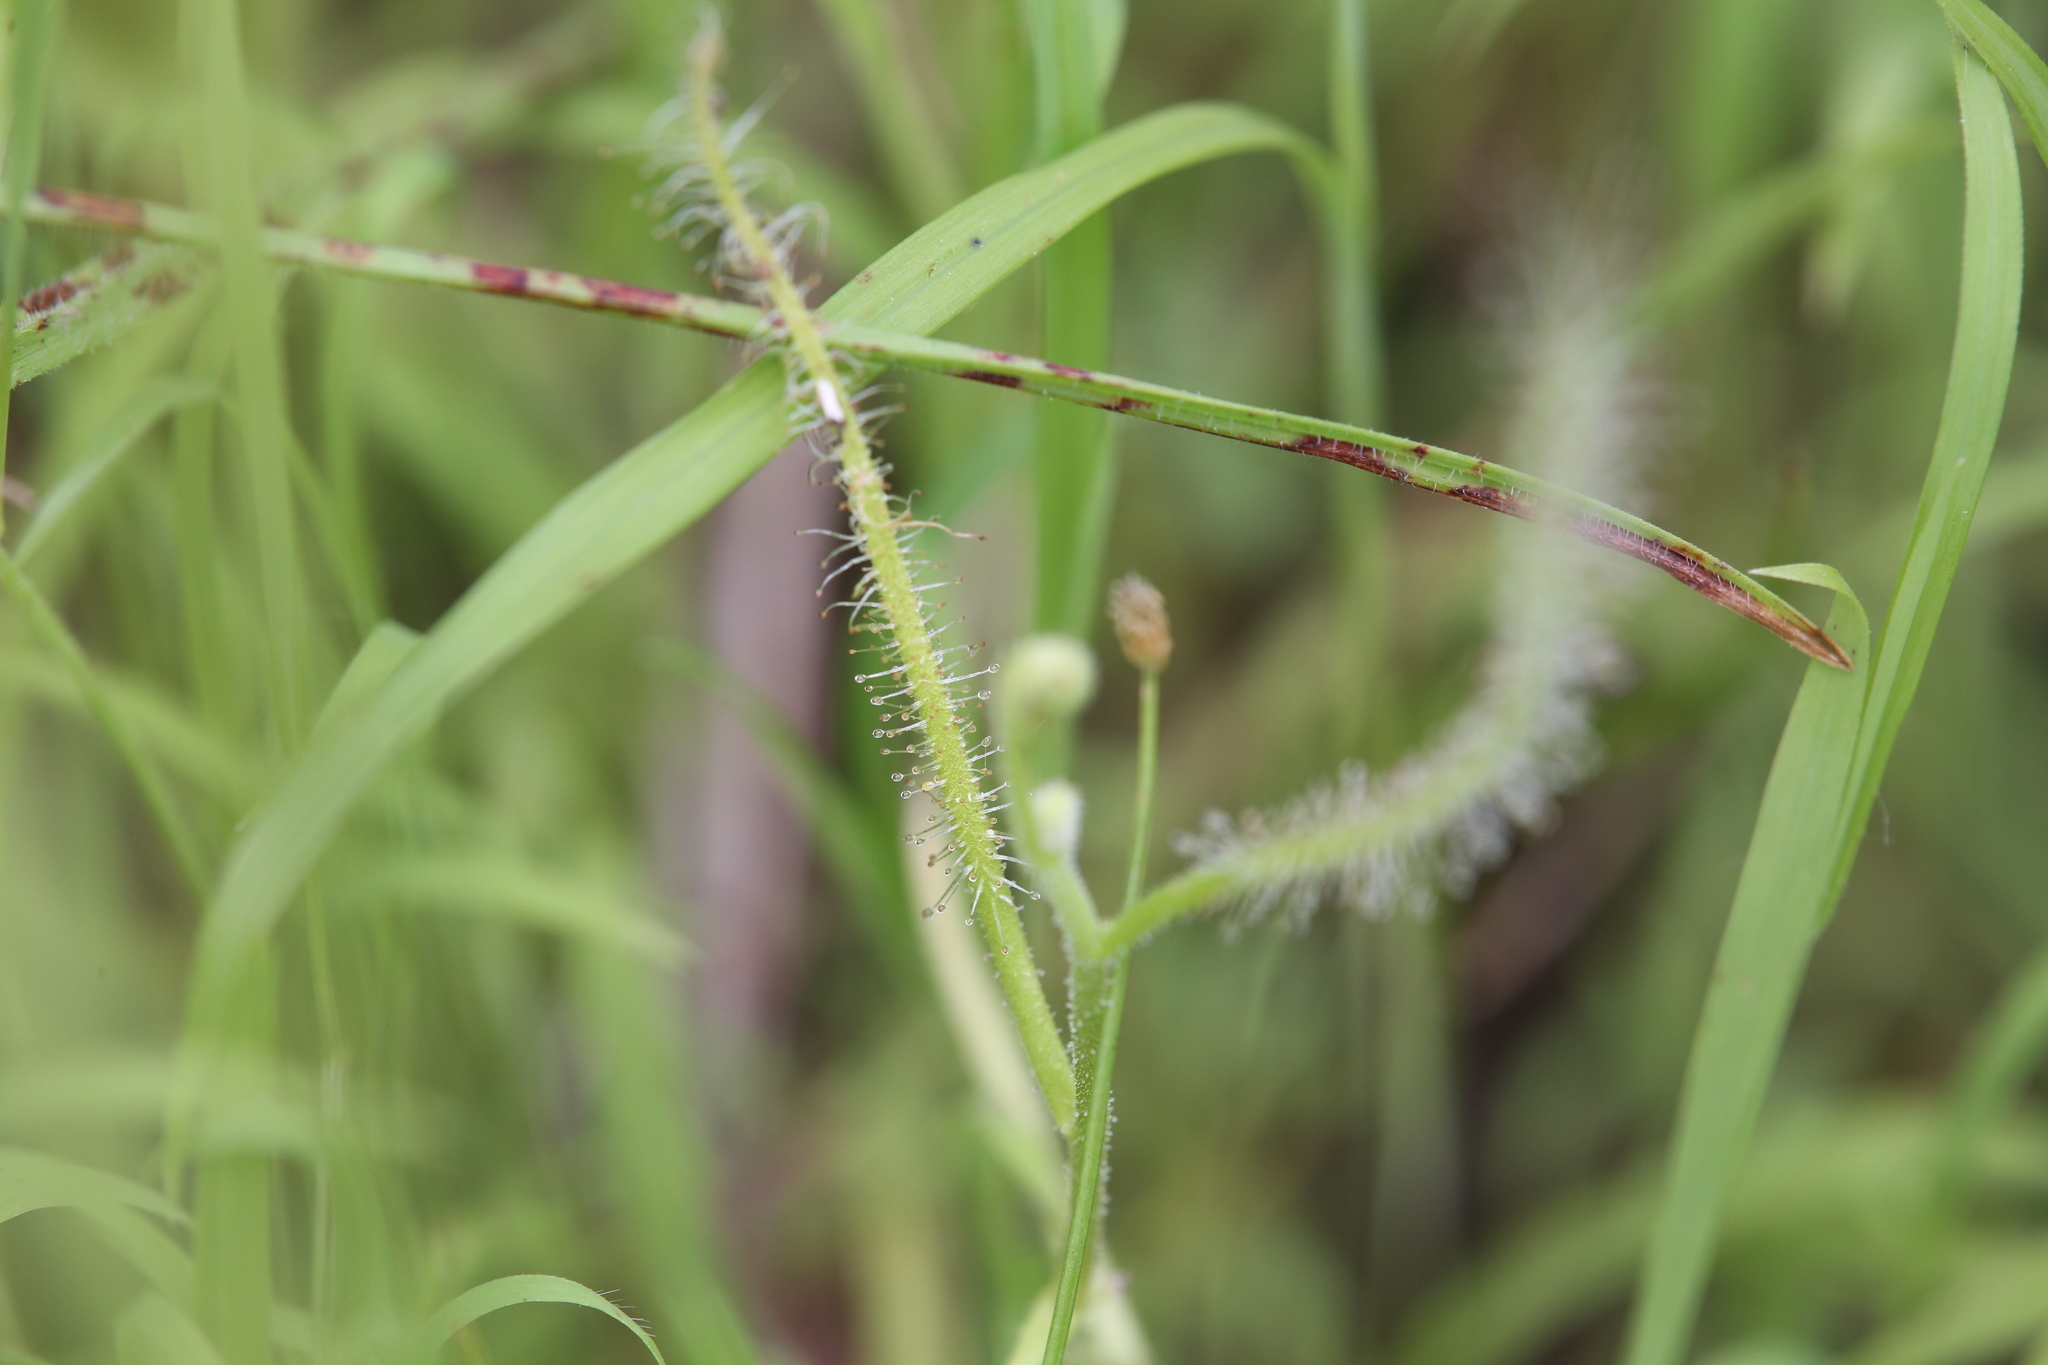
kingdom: Plantae
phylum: Tracheophyta
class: Magnoliopsida
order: Caryophyllales
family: Droseraceae
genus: Drosera
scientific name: Drosera indica
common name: Indian sundew
